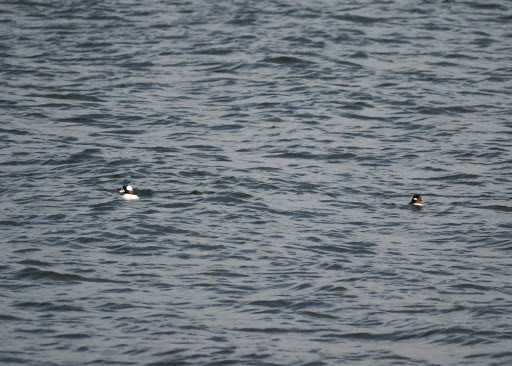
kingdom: Animalia
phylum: Chordata
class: Aves
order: Anseriformes
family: Anatidae
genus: Bucephala
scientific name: Bucephala albeola
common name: Bufflehead
